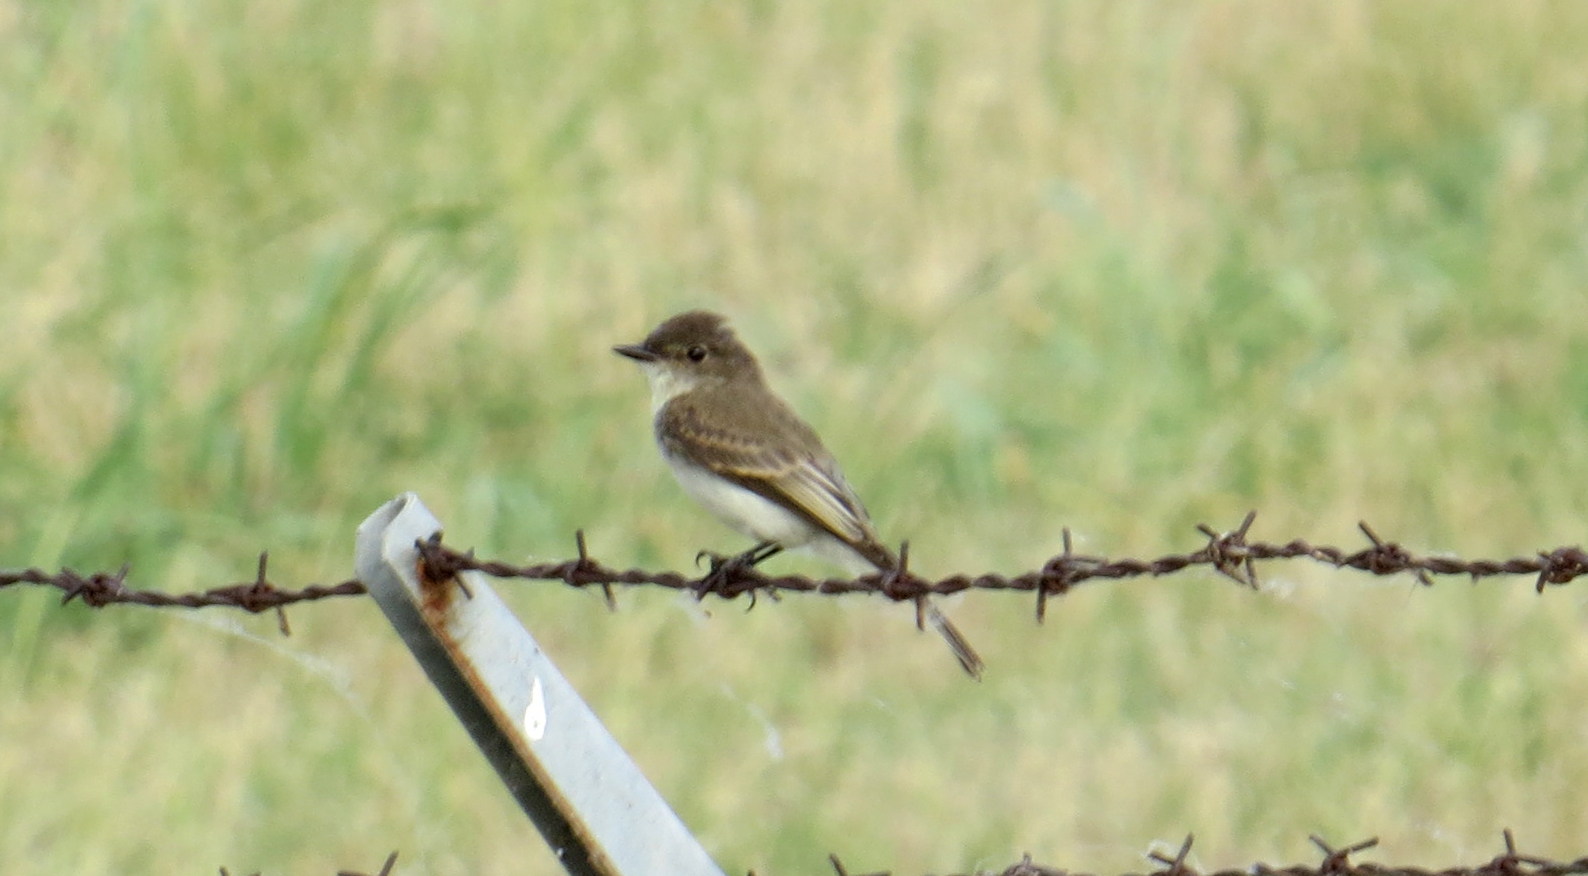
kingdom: Animalia
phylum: Chordata
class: Aves
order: Passeriformes
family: Tyrannidae
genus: Sayornis
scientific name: Sayornis phoebe
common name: Eastern phoebe
